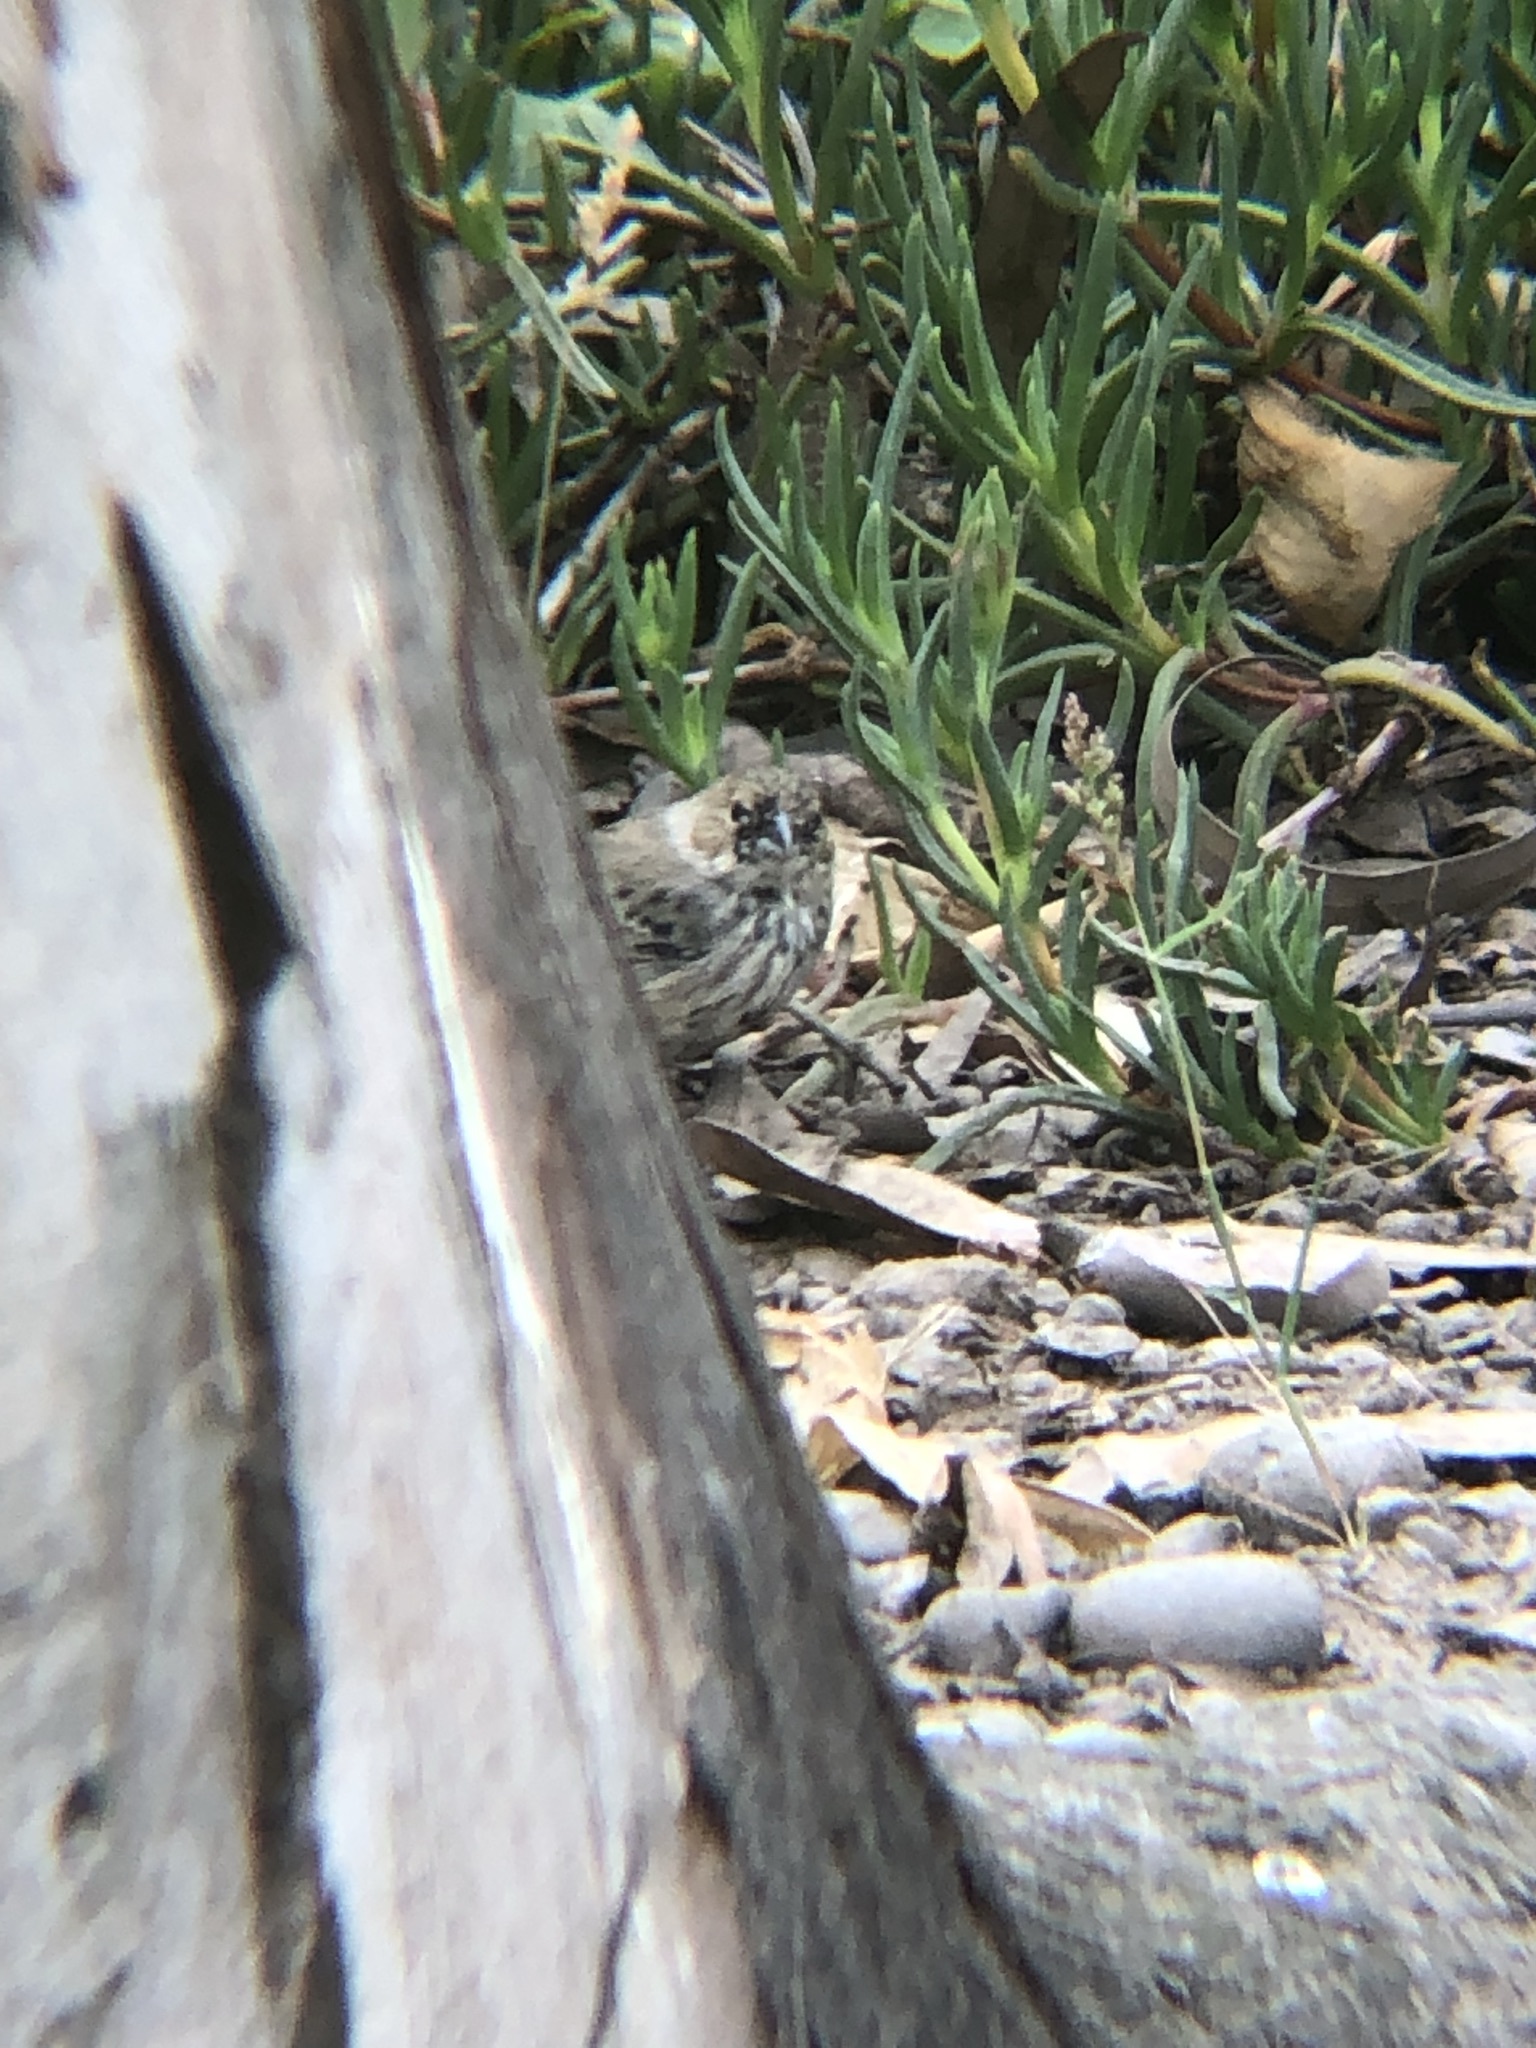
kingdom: Animalia
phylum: Chordata
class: Aves
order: Passeriformes
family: Thraupidae
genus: Volatinia
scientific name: Volatinia jacarina
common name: Blue-black grassquit
